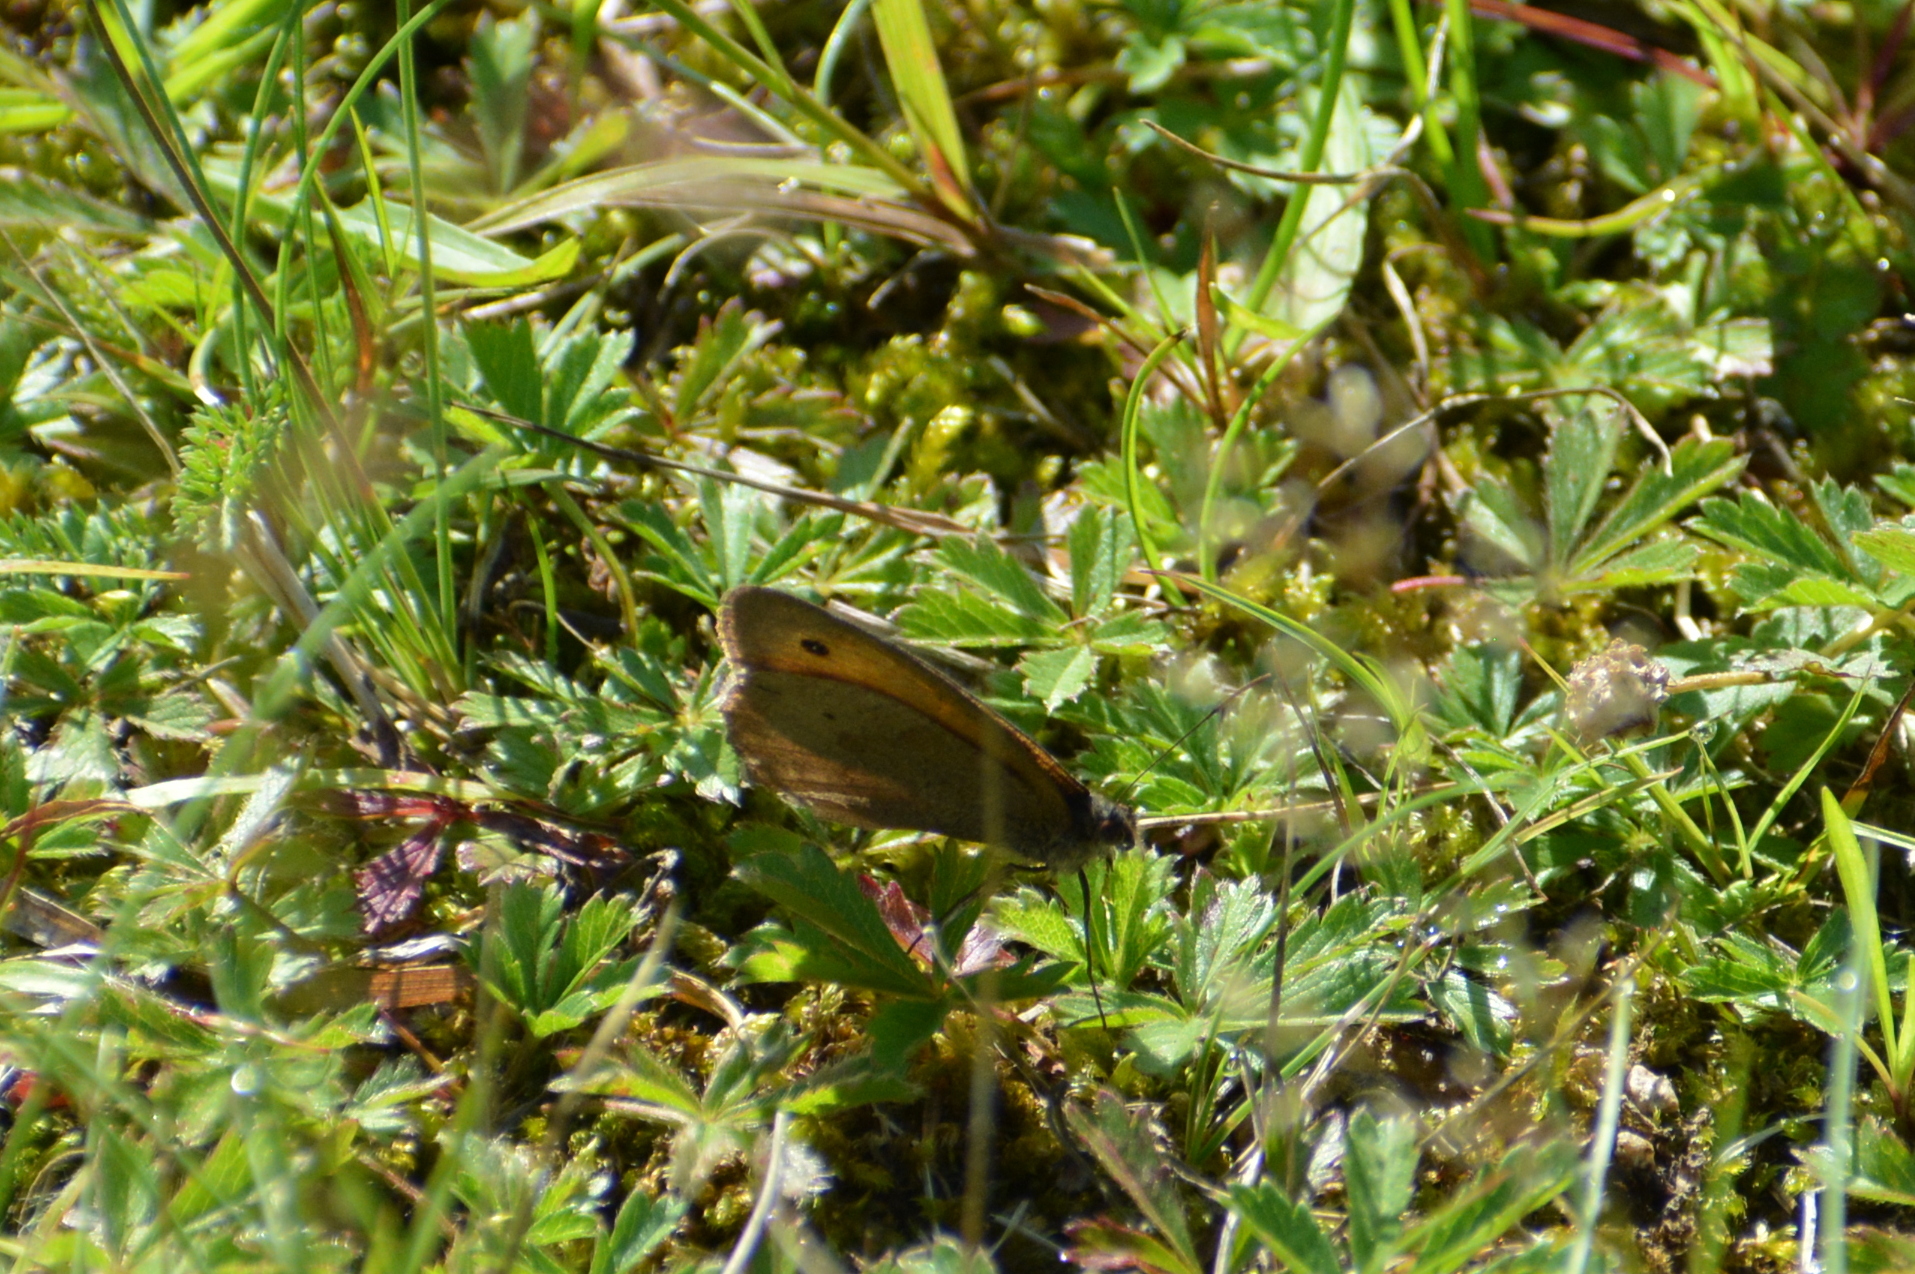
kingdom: Animalia
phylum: Arthropoda
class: Insecta
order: Lepidoptera
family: Nymphalidae
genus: Maniola
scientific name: Maniola jurtina
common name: Meadow brown
